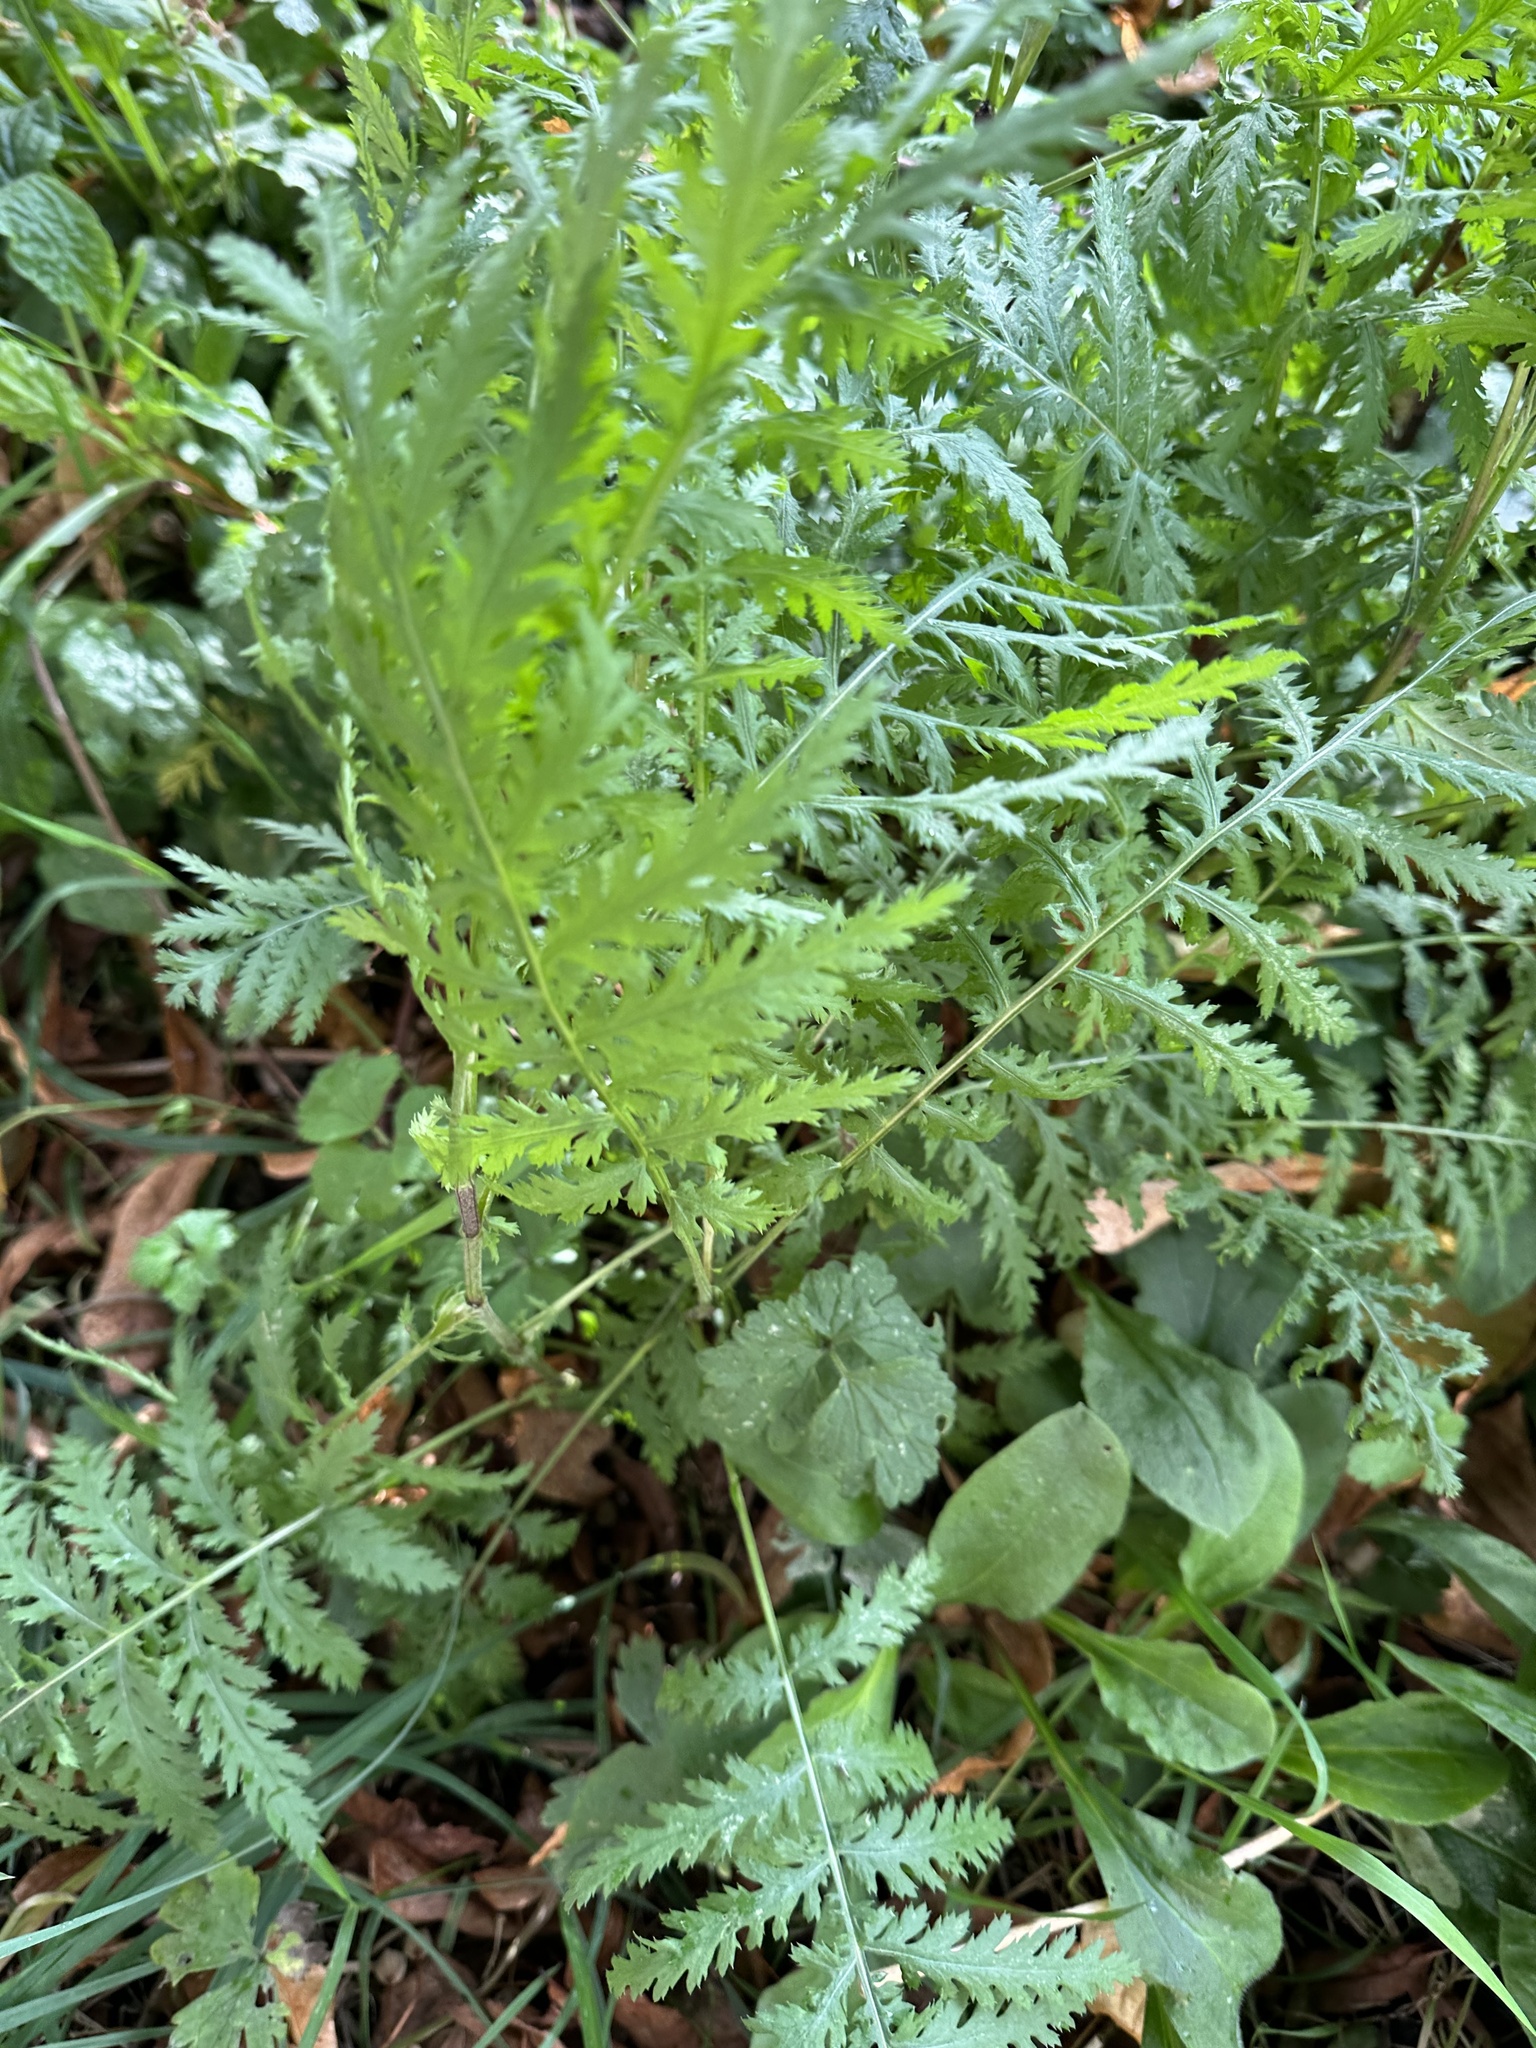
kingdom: Plantae
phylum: Tracheophyta
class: Magnoliopsida
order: Asterales
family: Asteraceae
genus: Tanacetum
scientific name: Tanacetum vulgare
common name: Common tansy
